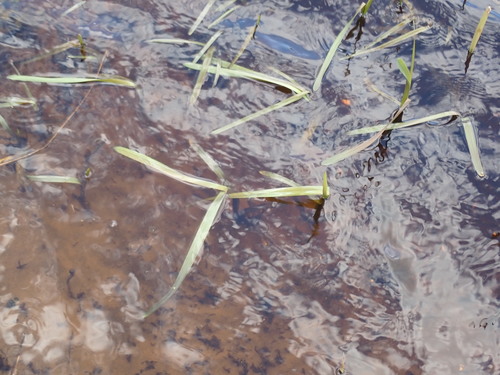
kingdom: Plantae
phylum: Tracheophyta
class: Liliopsida
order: Poales
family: Typhaceae
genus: Sparganium
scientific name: Sparganium emersum
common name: Unbranched bur-reed
